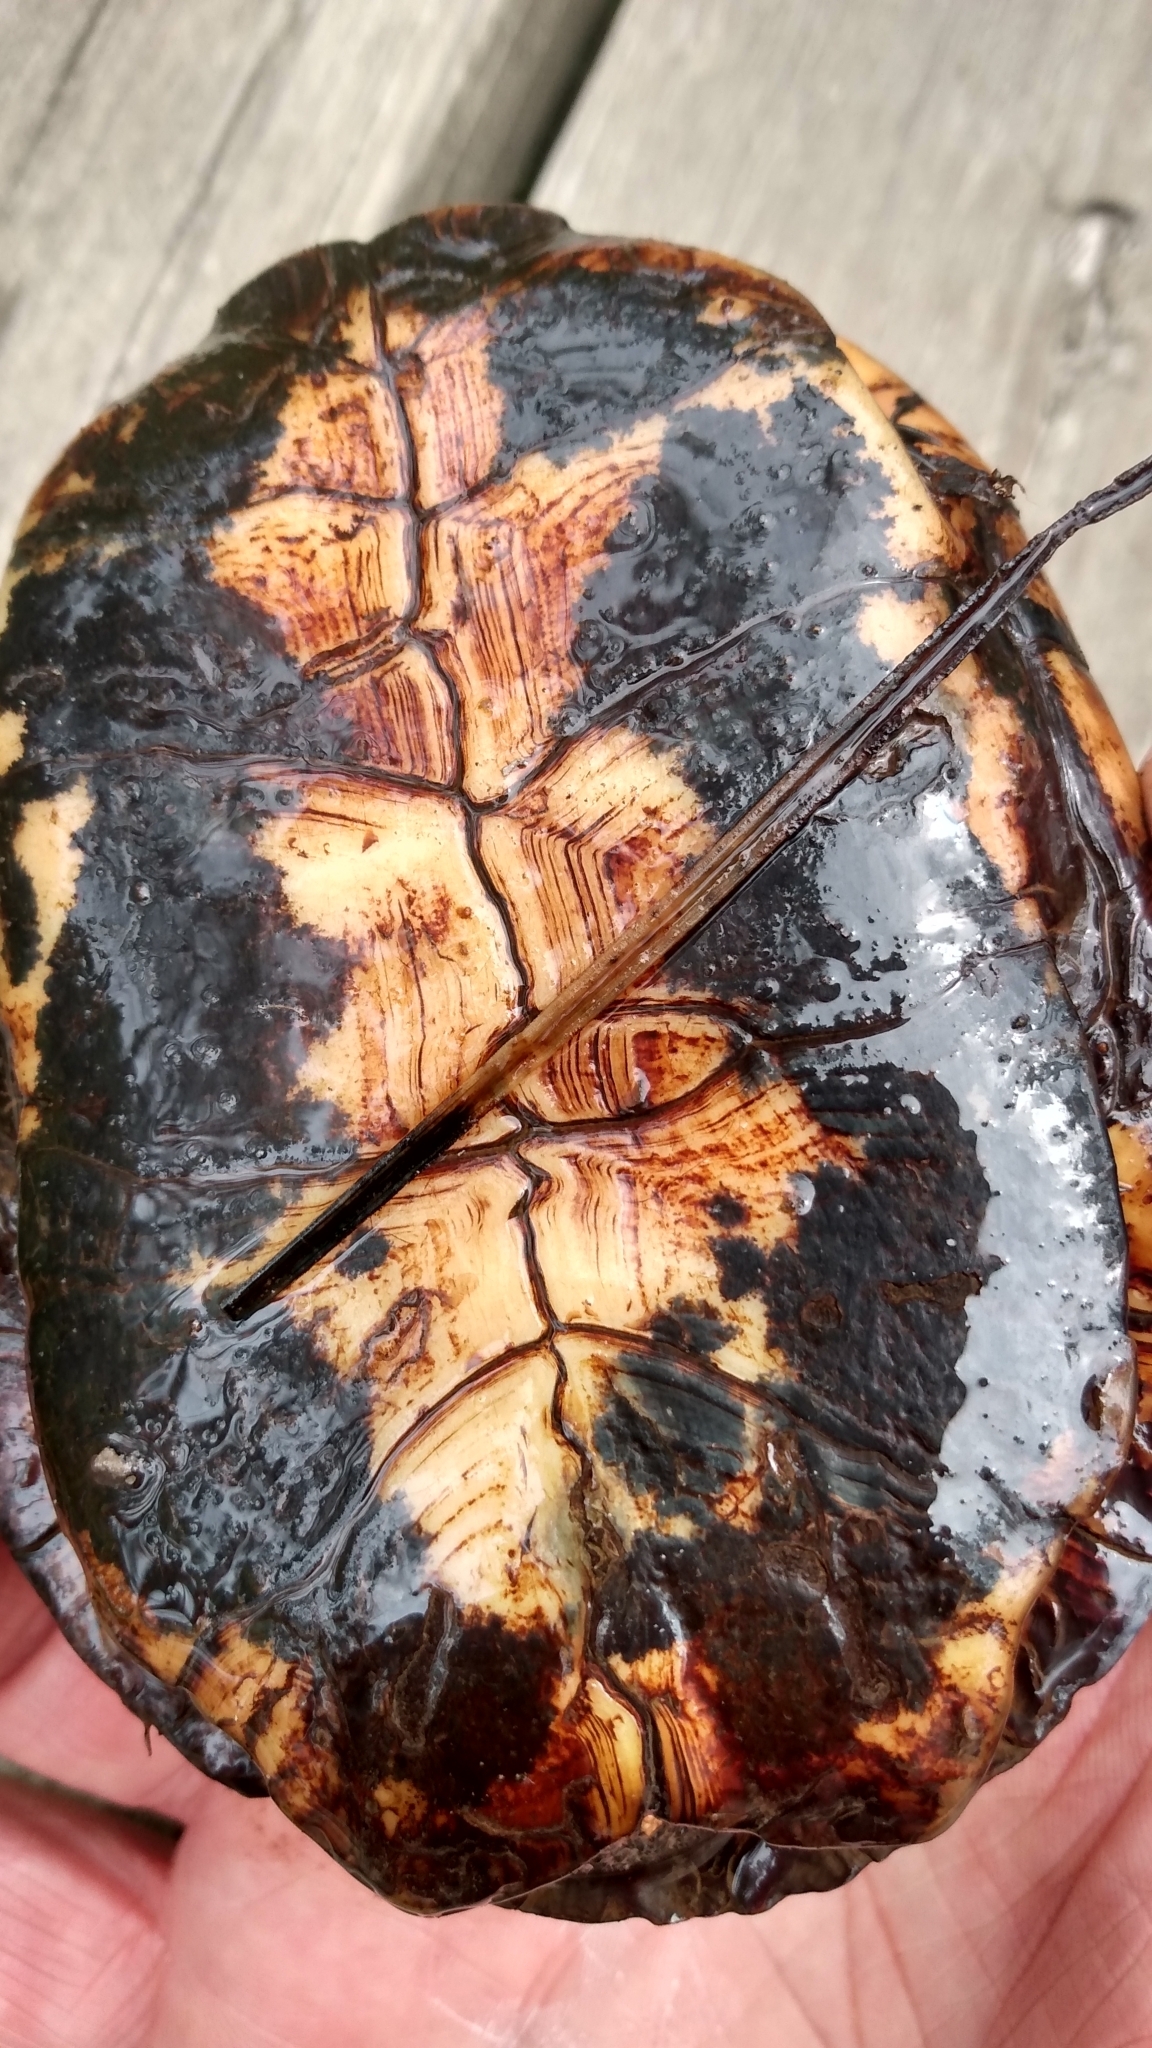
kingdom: Animalia
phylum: Chordata
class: Testudines
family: Emydidae
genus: Clemmys
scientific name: Clemmys guttata
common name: Spotted turtle
